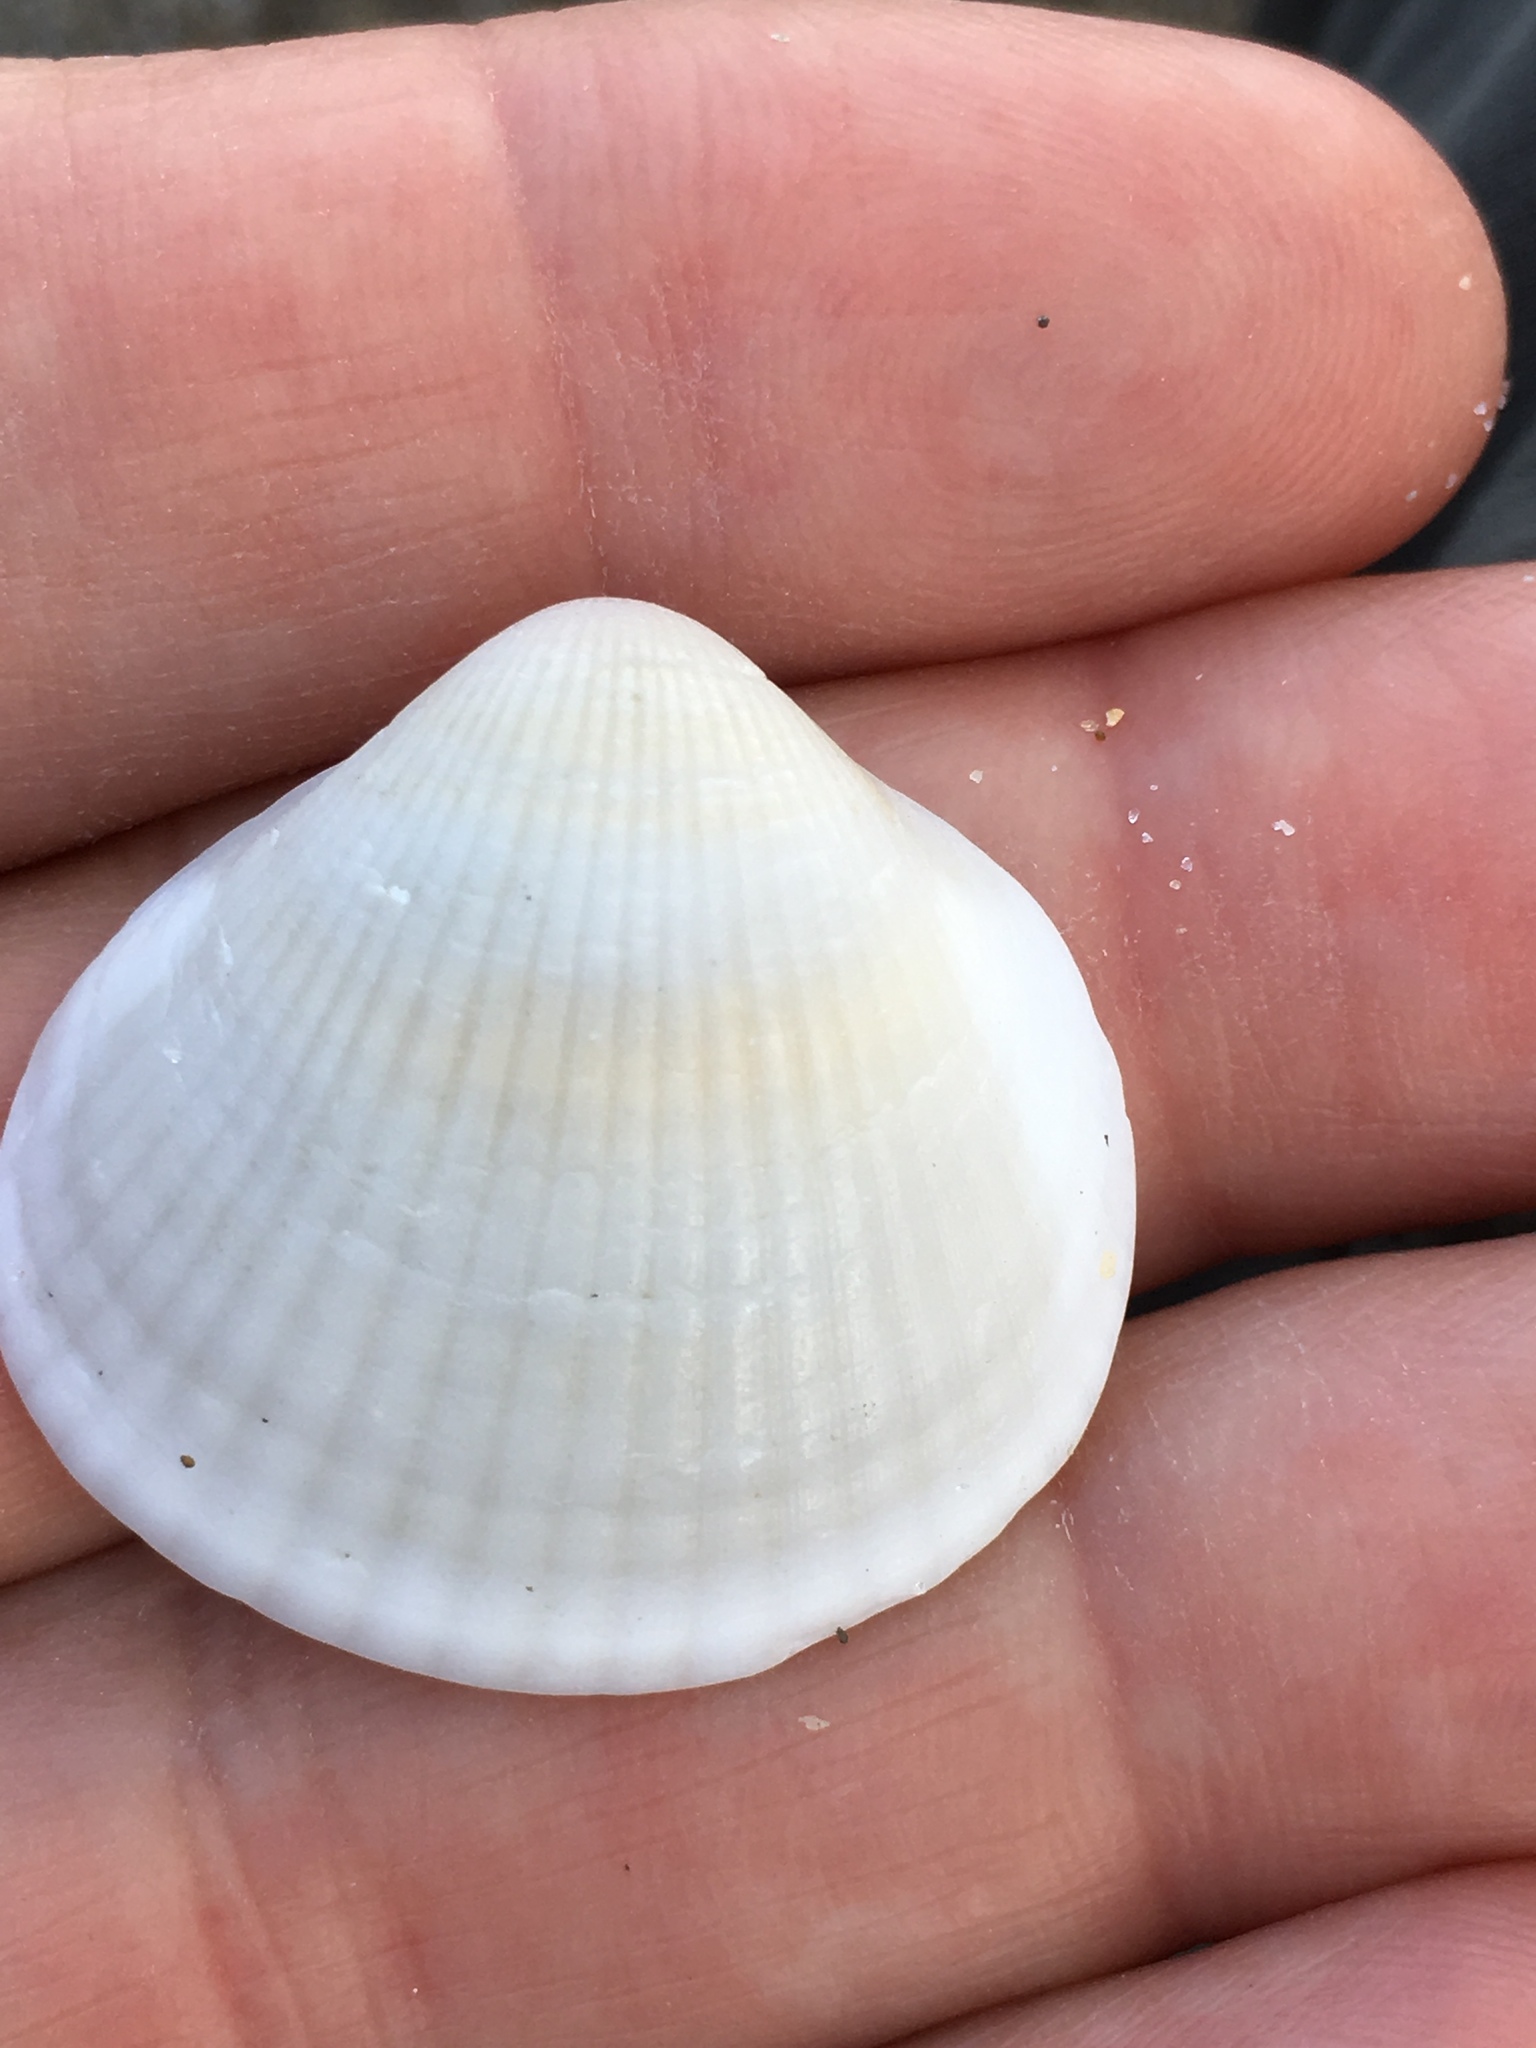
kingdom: Animalia
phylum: Mollusca
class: Bivalvia
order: Arcida
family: Glycymerididae
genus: Glycymeris
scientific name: Glycymeris spectralis
